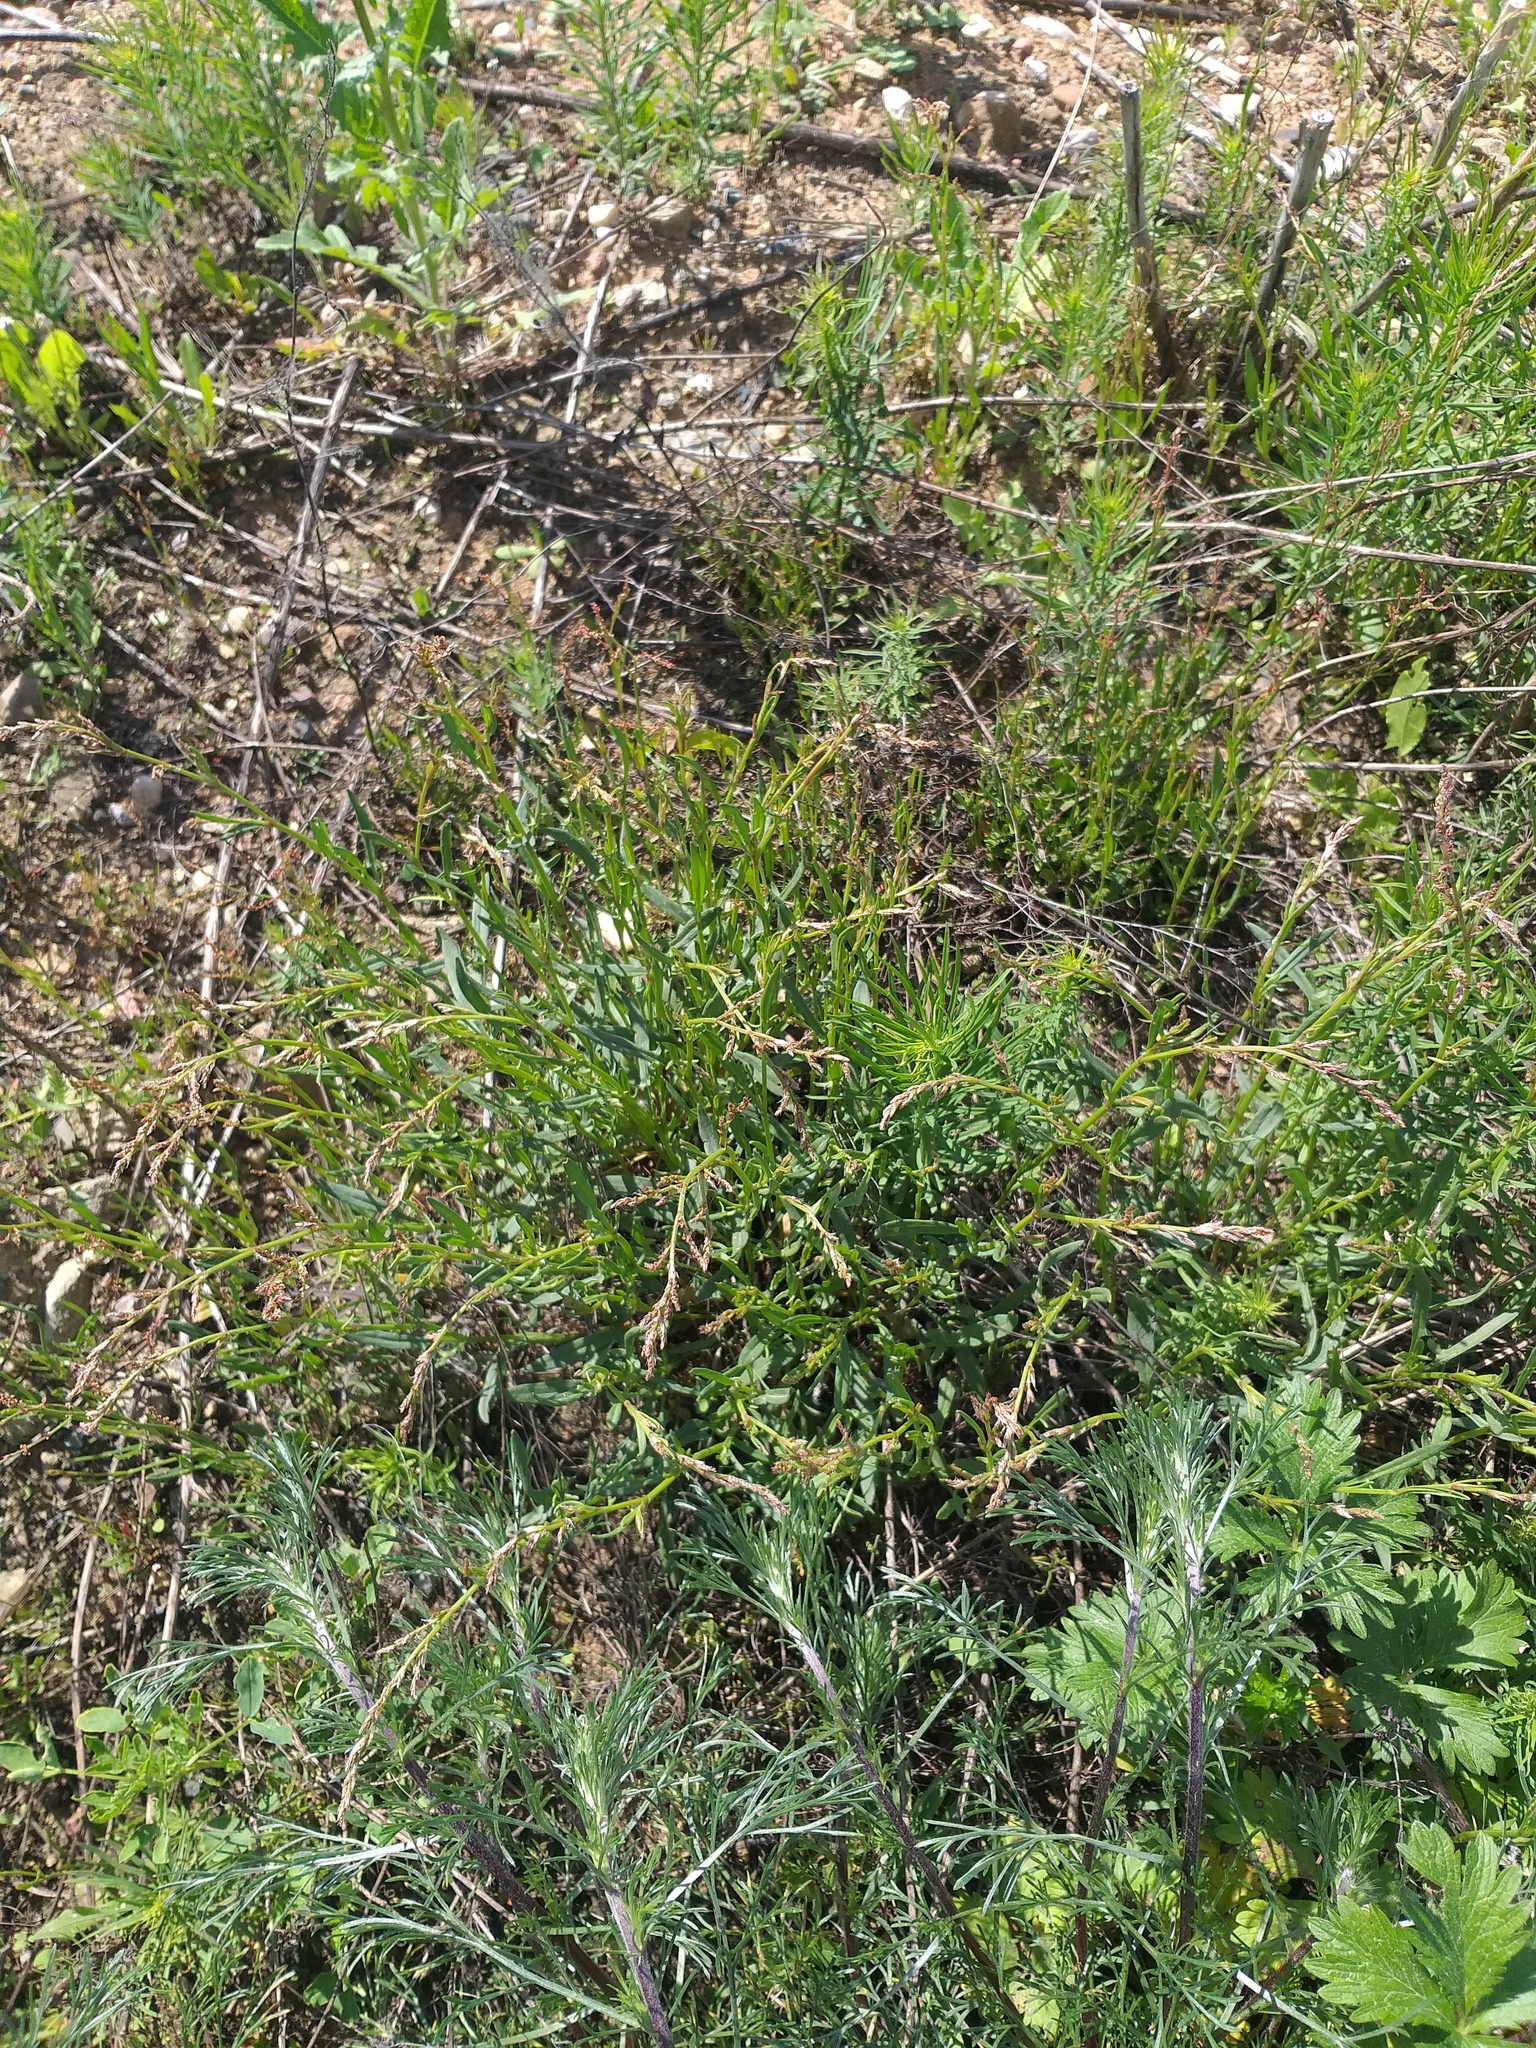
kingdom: Plantae
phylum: Tracheophyta
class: Magnoliopsida
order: Caryophyllales
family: Polygonaceae
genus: Rumex
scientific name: Rumex acetosella
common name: Common sheep sorrel
